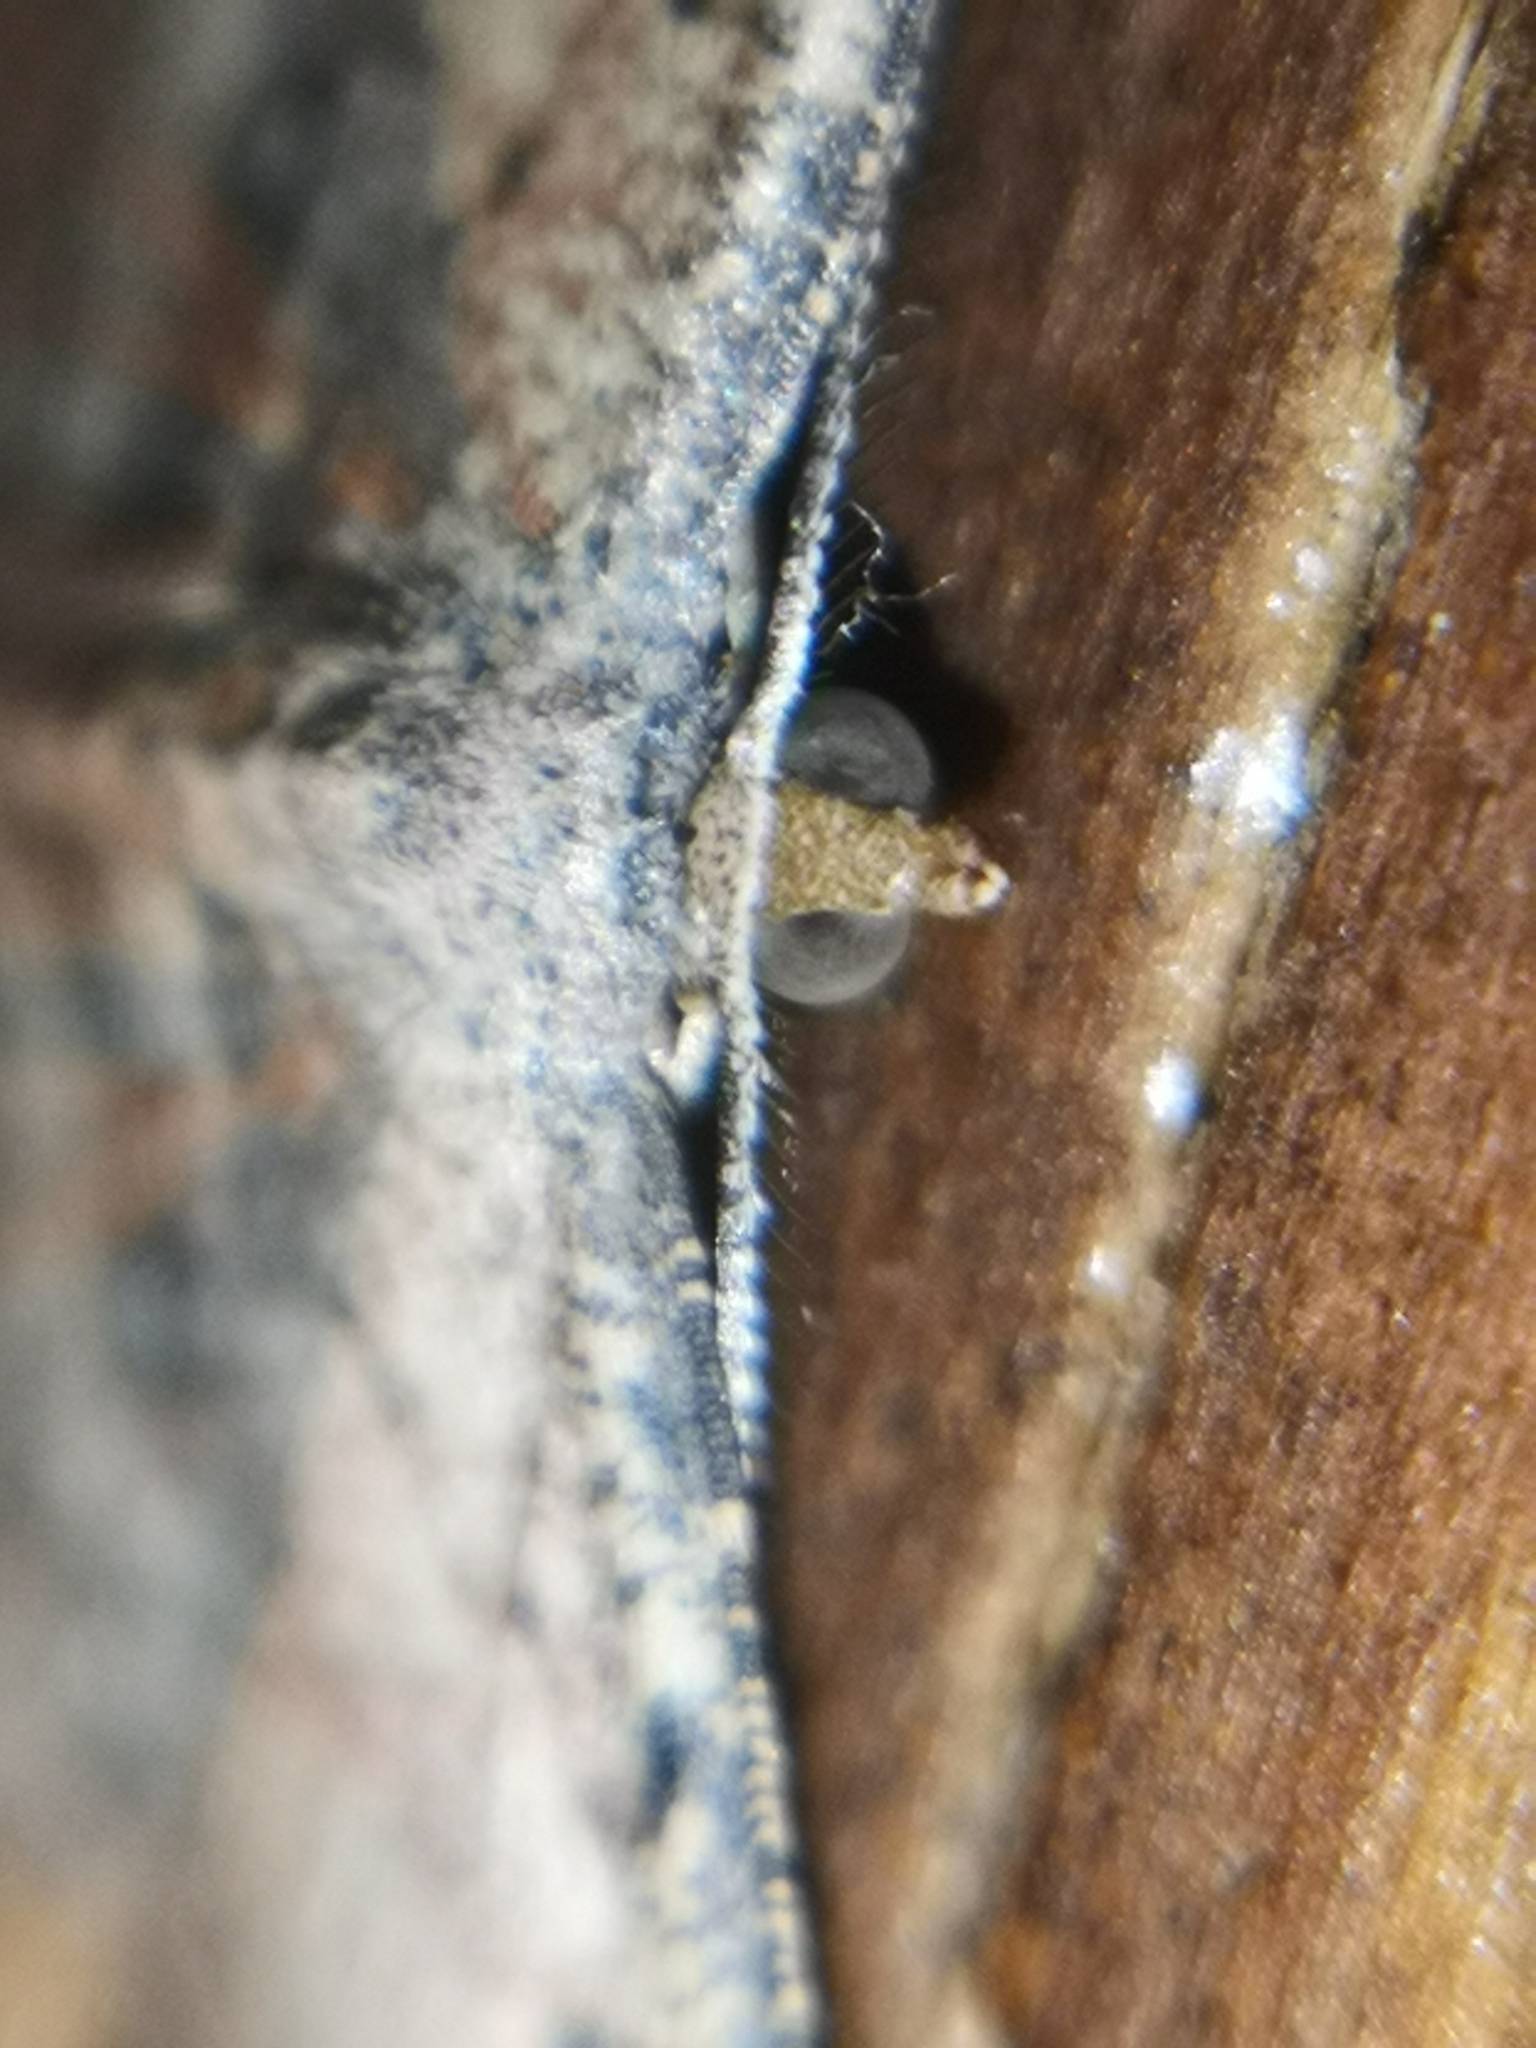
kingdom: Animalia
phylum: Arthropoda
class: Insecta
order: Lepidoptera
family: Geometridae
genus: Cyclophora
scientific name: Cyclophora nanaria
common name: Cankerworm
